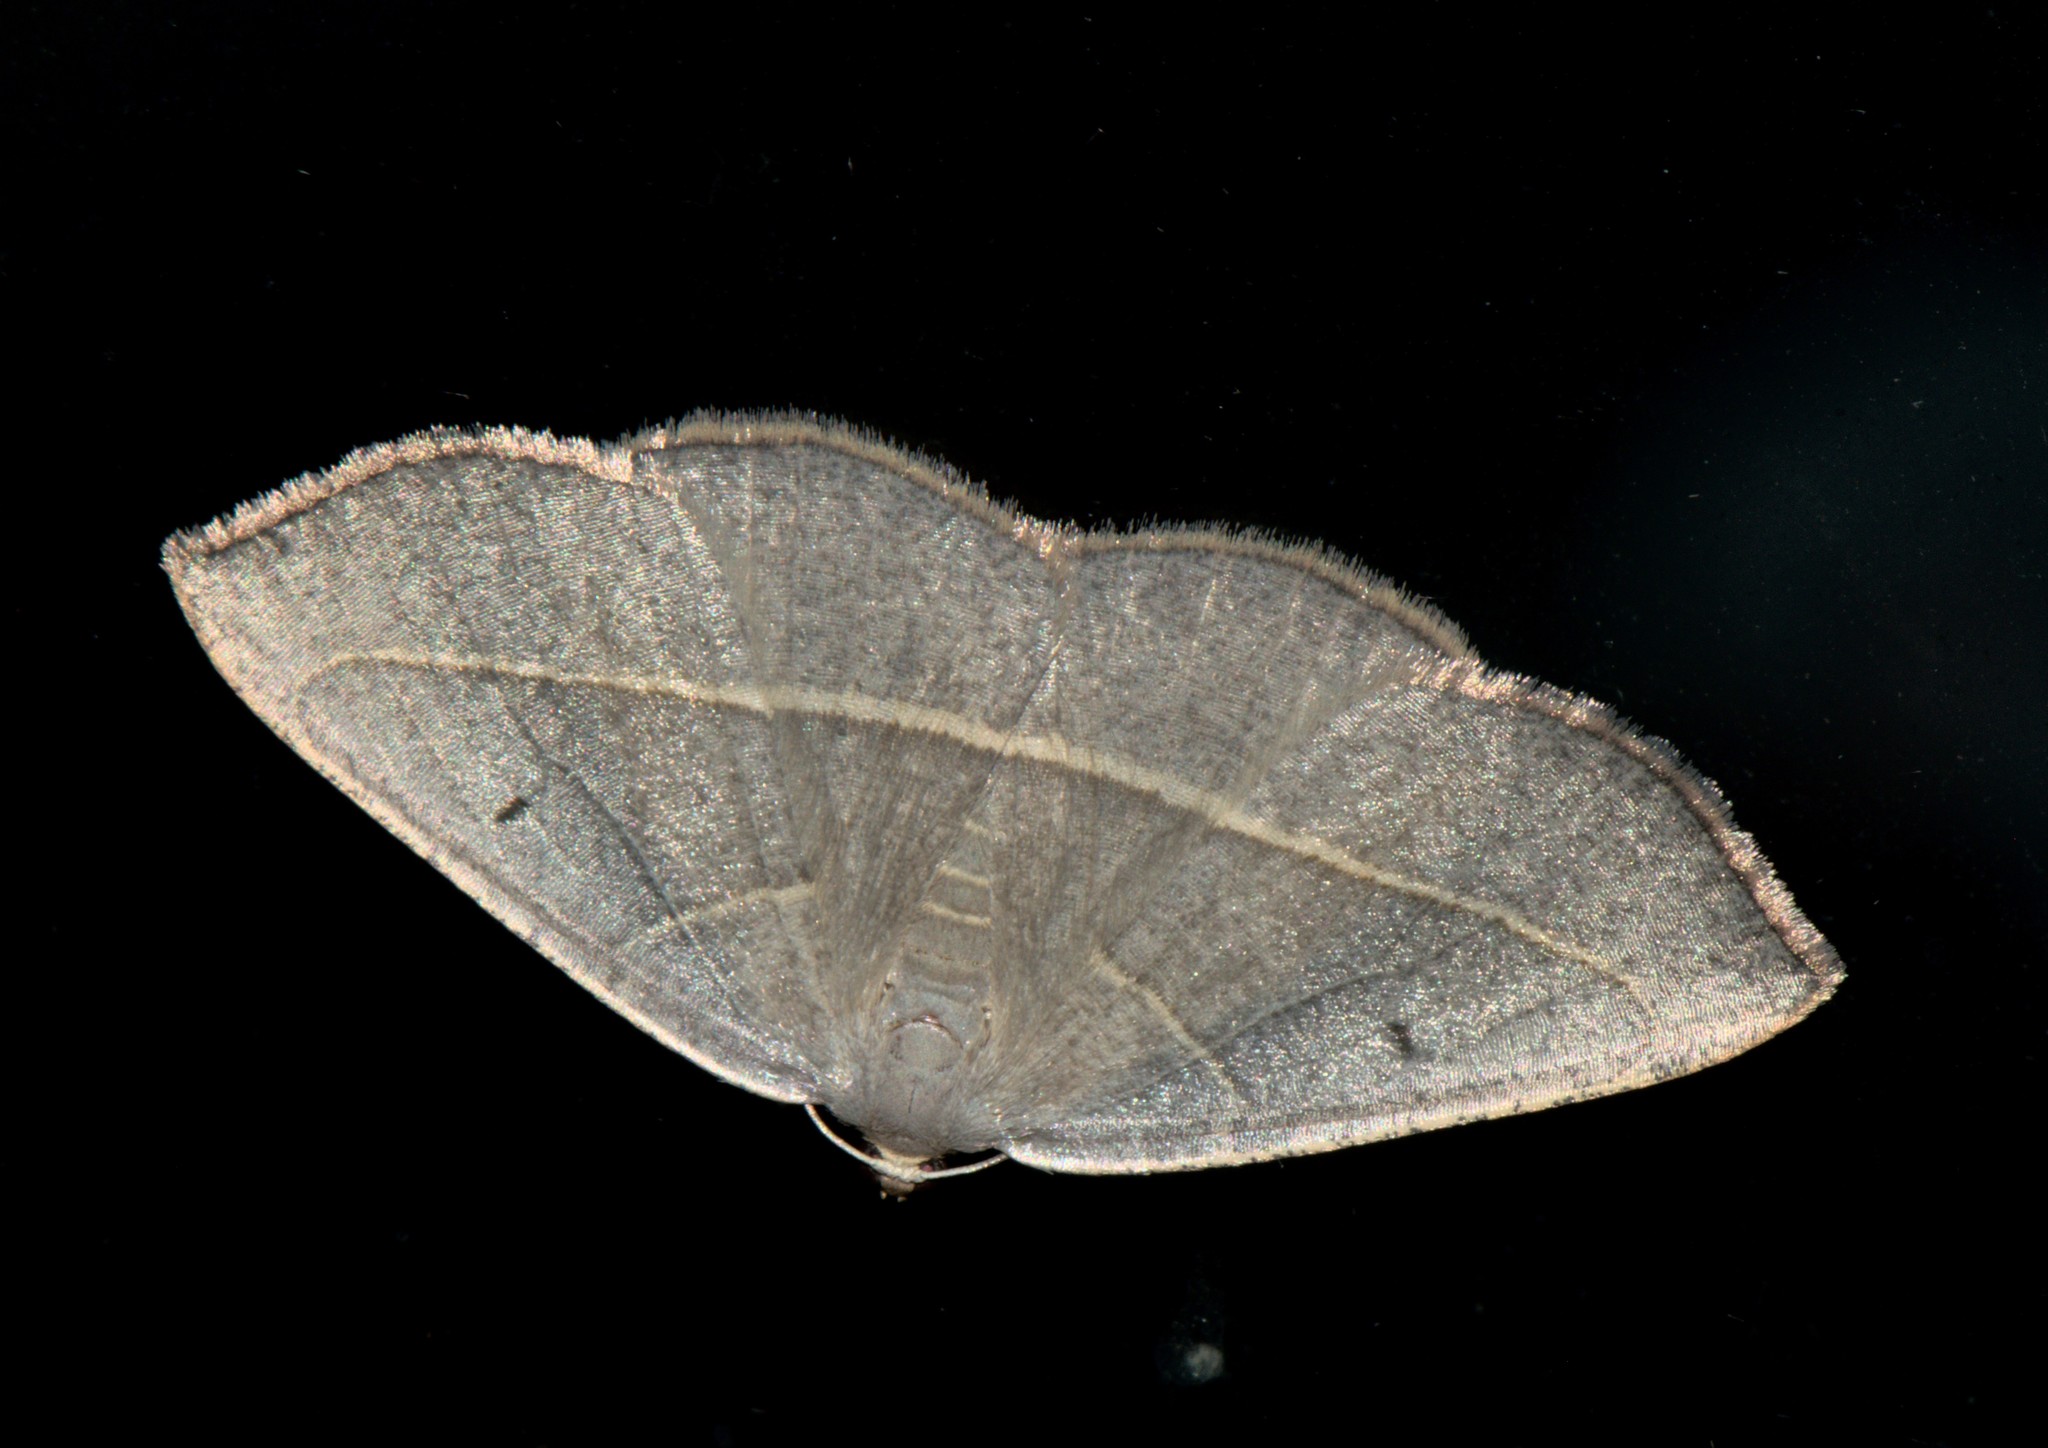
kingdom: Animalia
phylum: Arthropoda
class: Insecta
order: Lepidoptera
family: Geometridae
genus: Nothomiza
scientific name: Nothomiza achromaria
